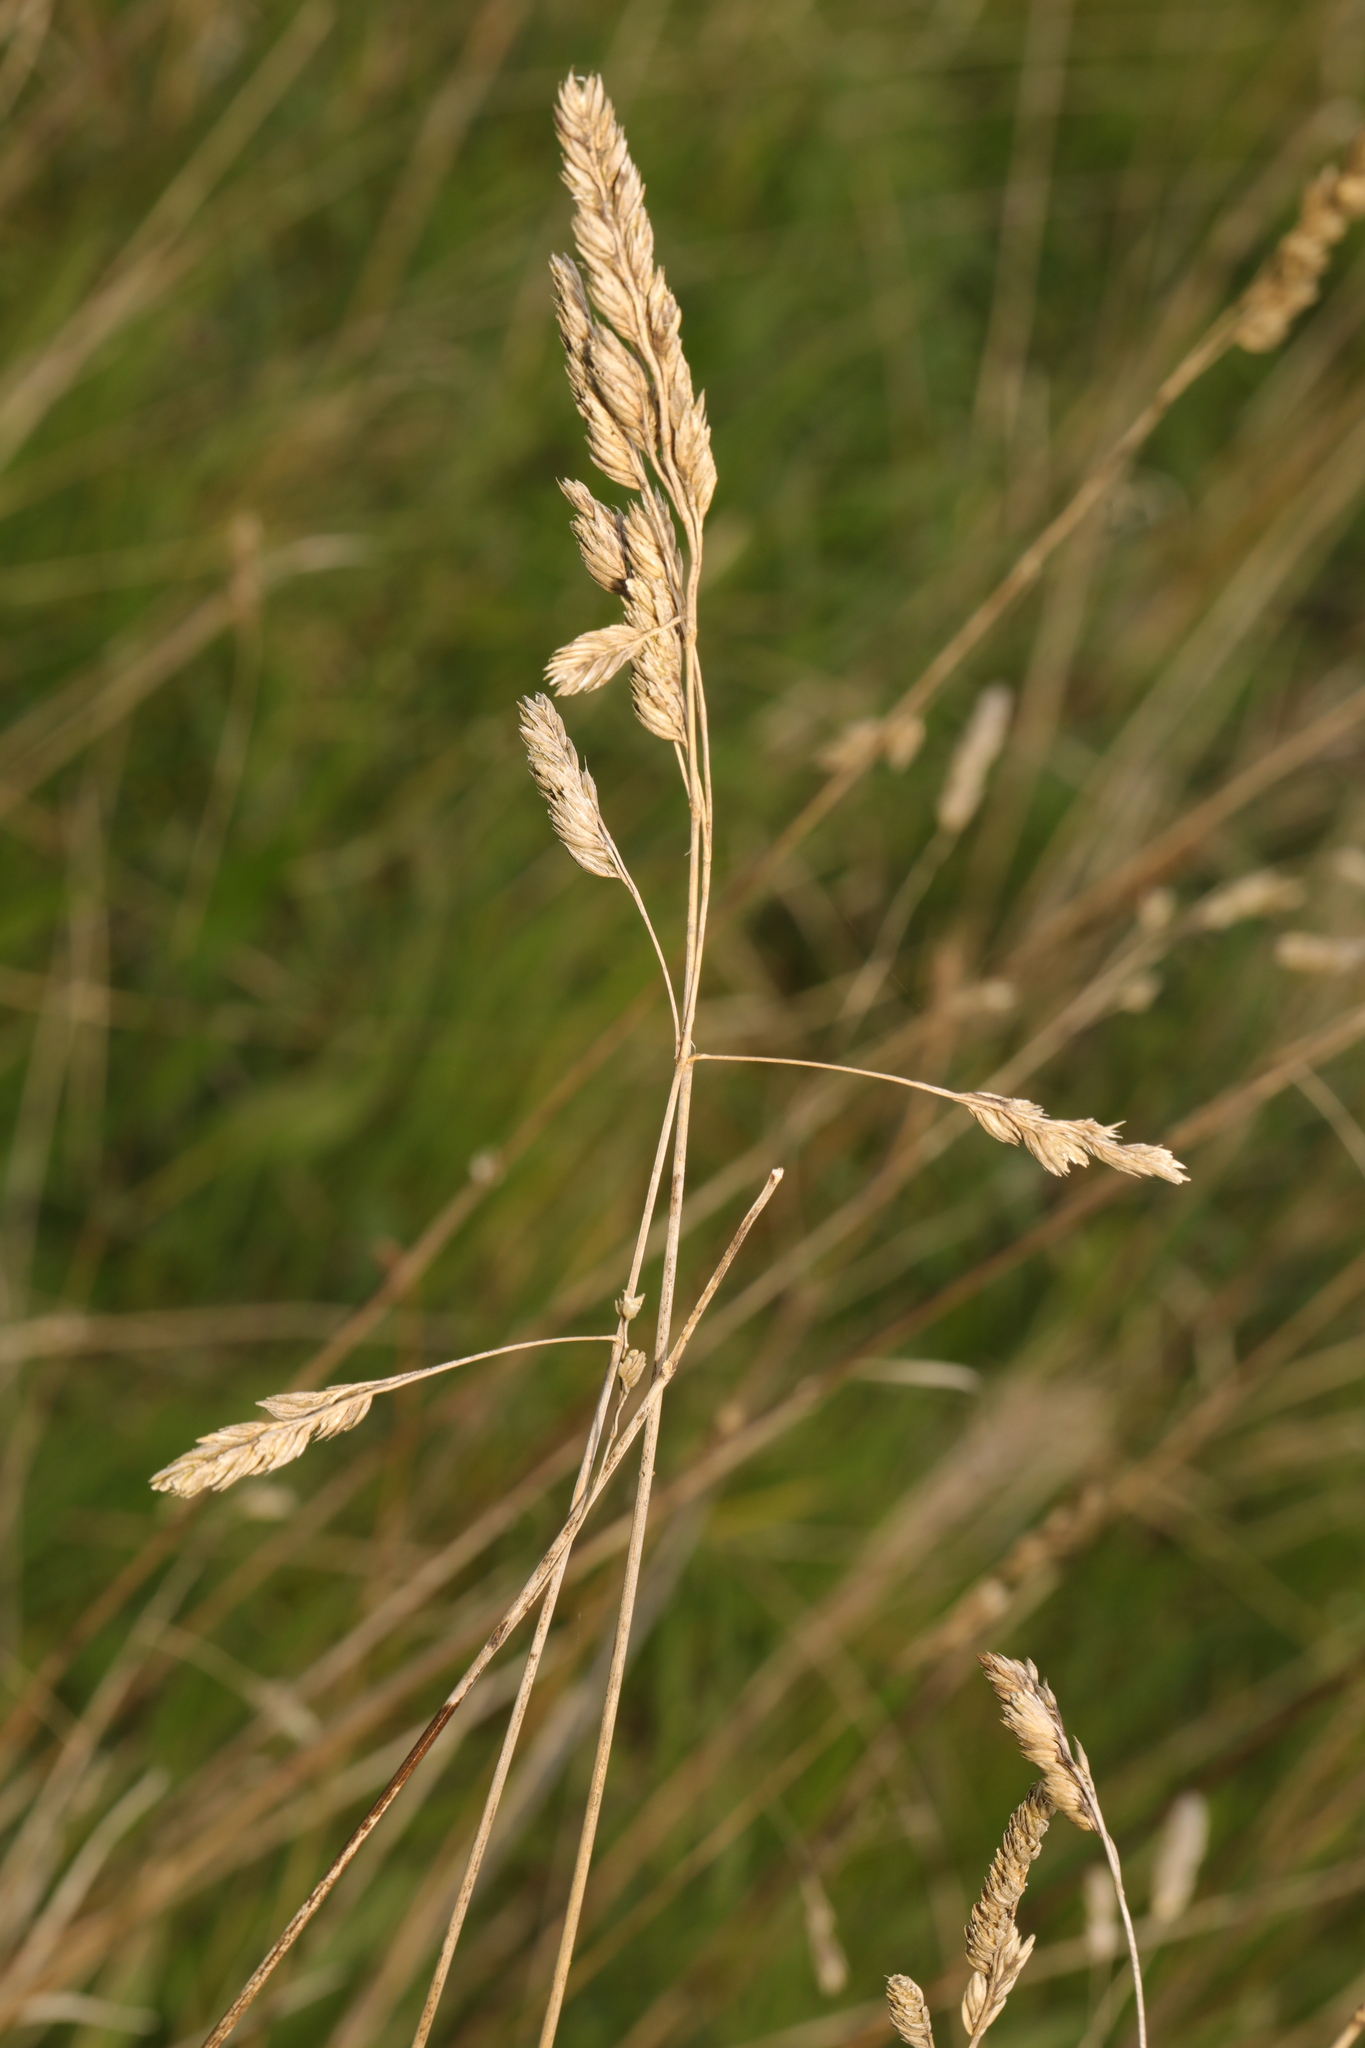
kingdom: Plantae
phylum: Tracheophyta
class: Liliopsida
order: Poales
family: Poaceae
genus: Dactylis
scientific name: Dactylis glomerata
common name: Orchardgrass
